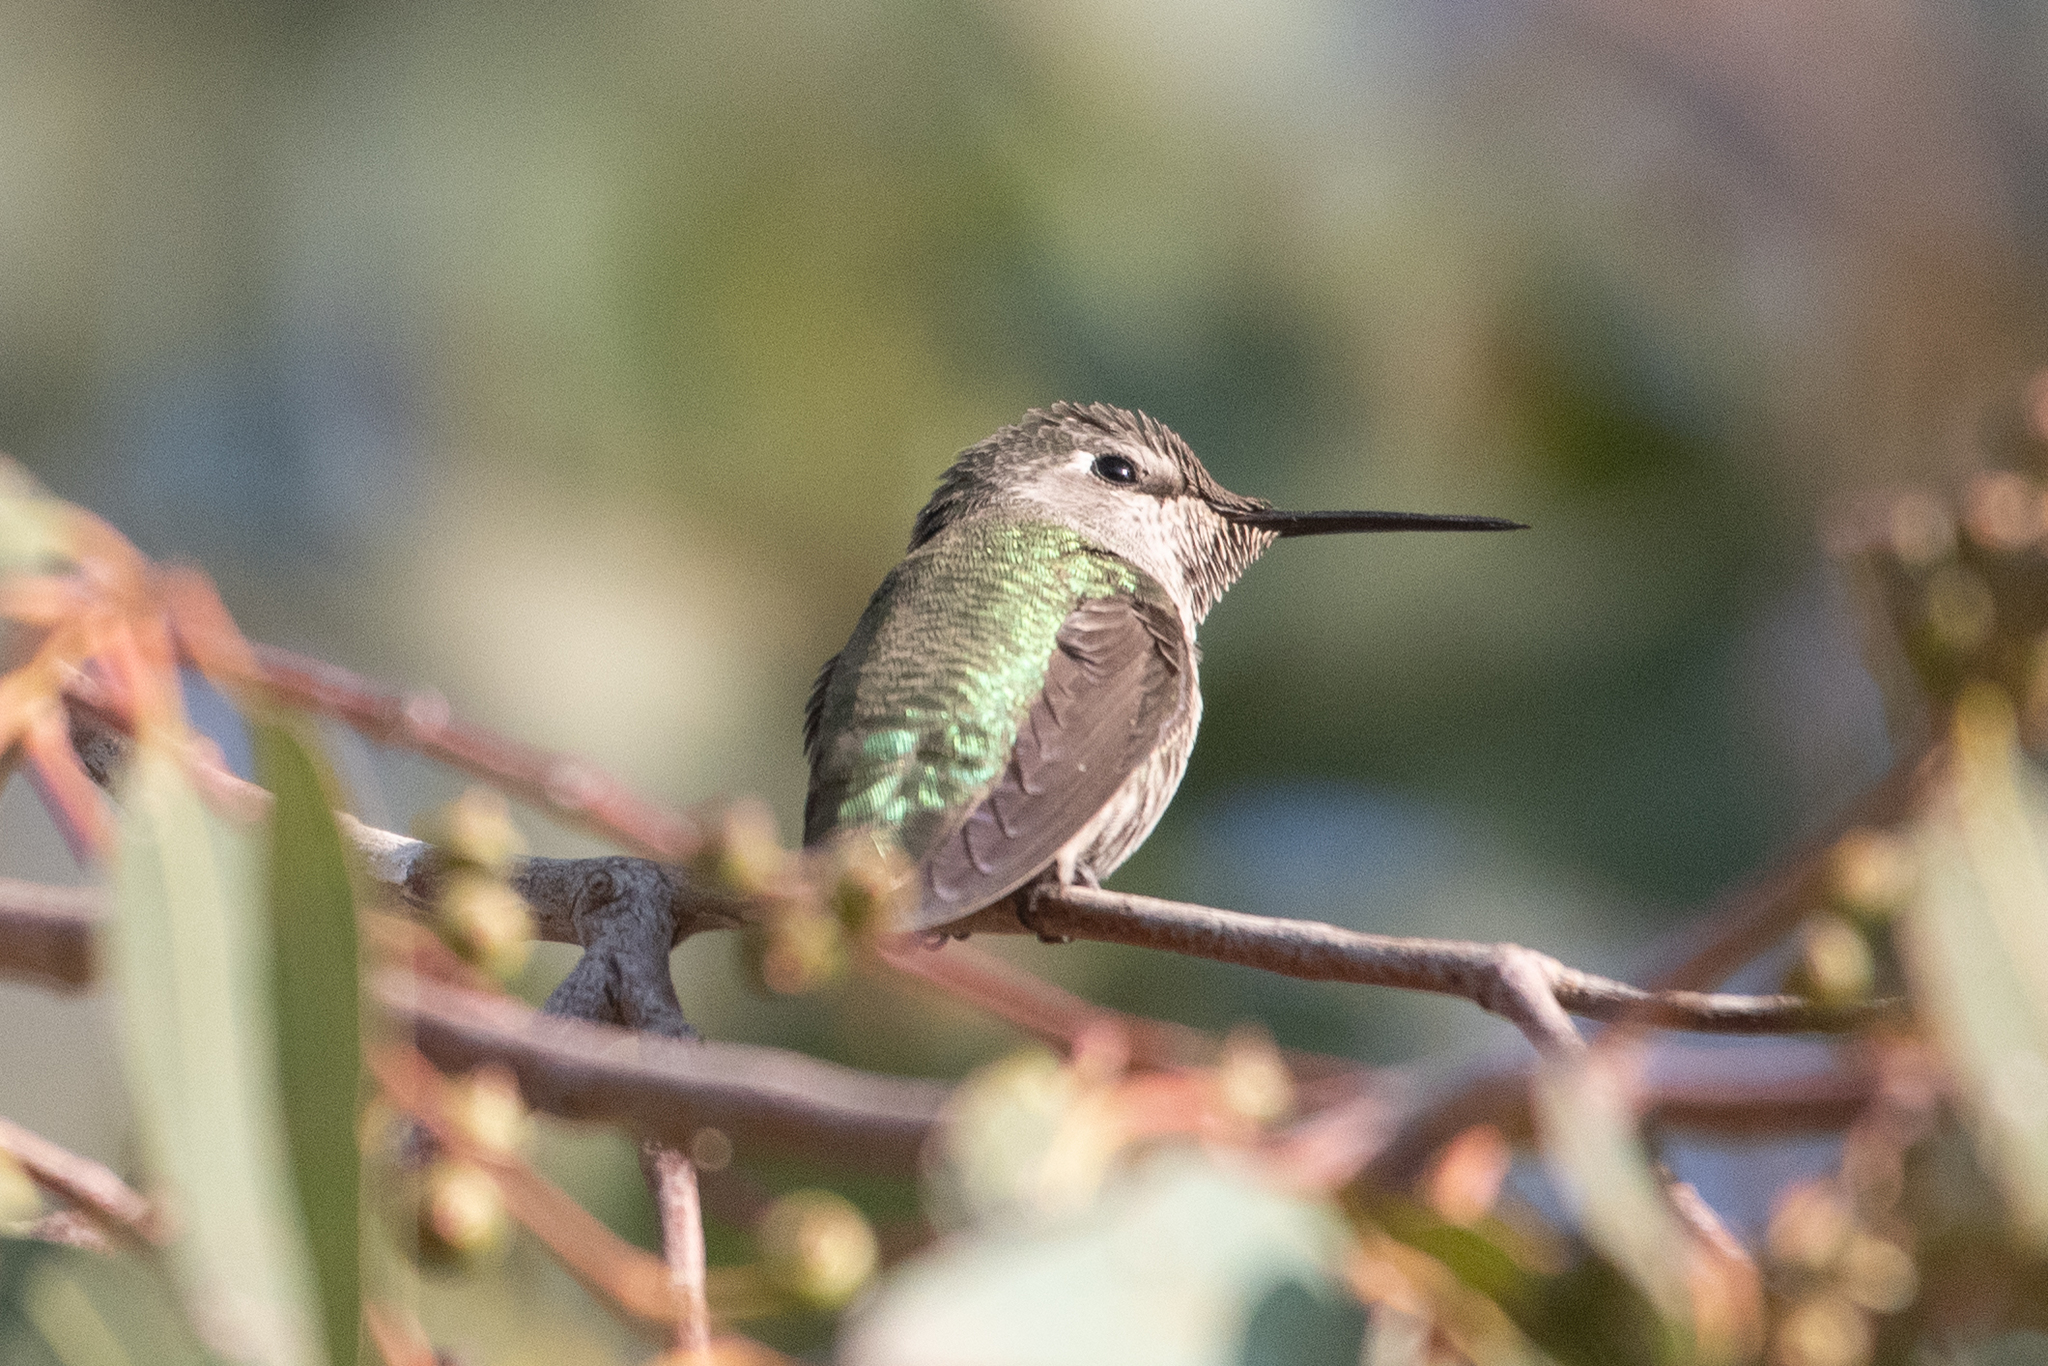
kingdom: Animalia
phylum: Chordata
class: Aves
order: Apodiformes
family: Trochilidae
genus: Calypte
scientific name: Calypte anna
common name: Anna's hummingbird
